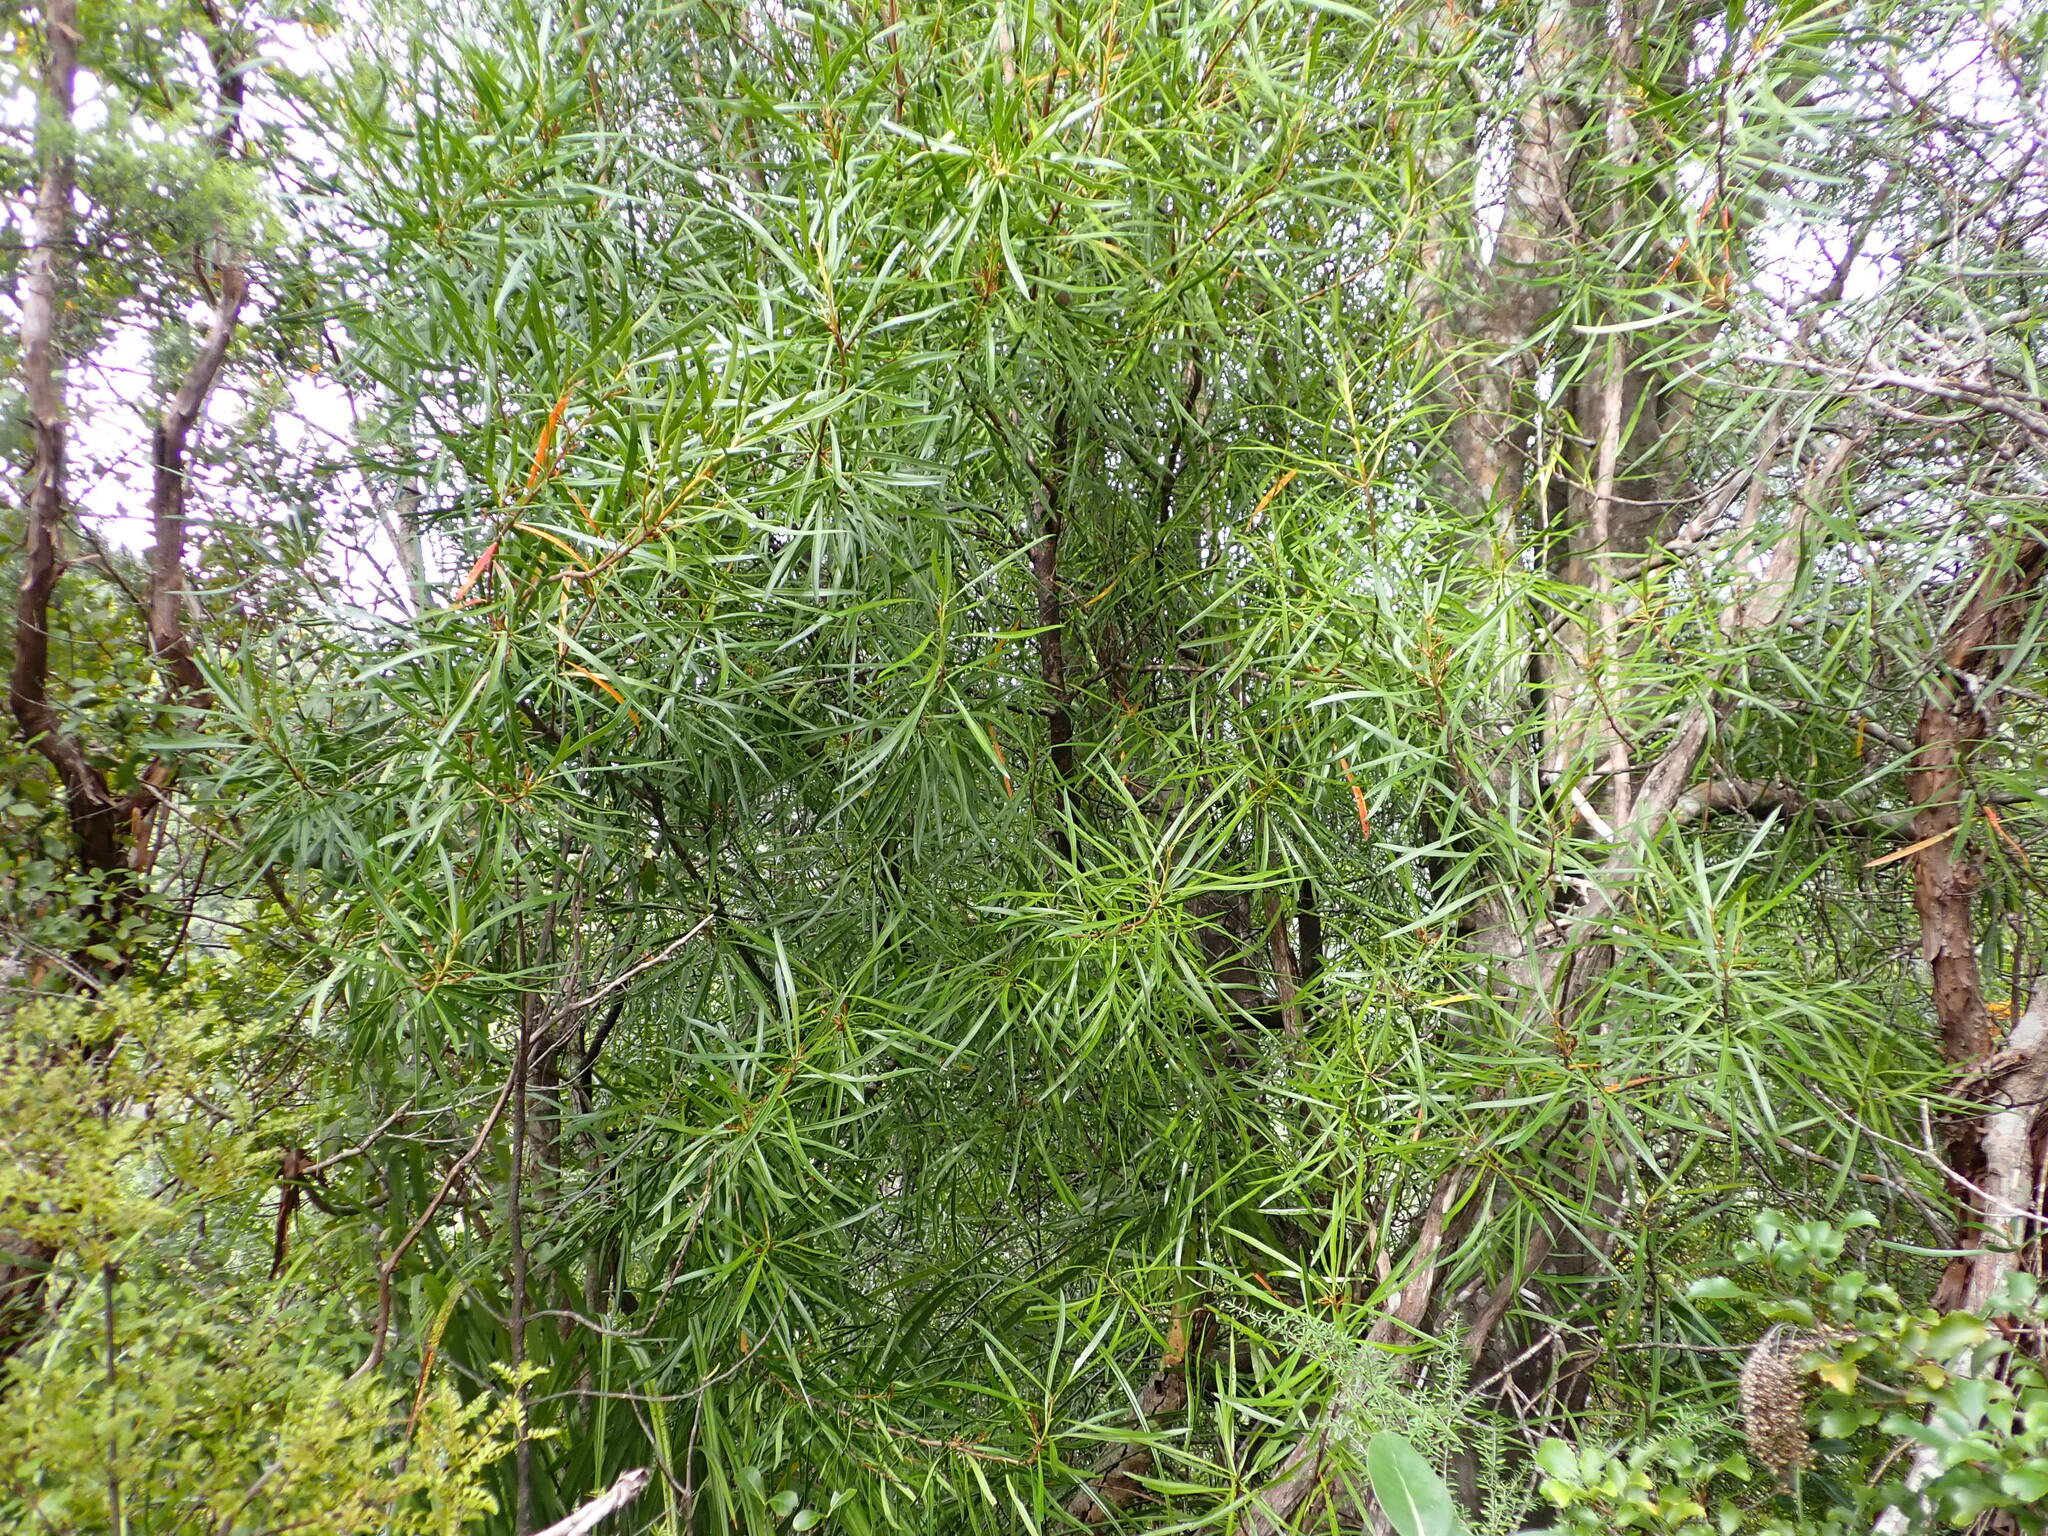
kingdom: Plantae
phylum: Tracheophyta
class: Magnoliopsida
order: Proteales
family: Proteaceae
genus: Toronia
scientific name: Toronia toru
